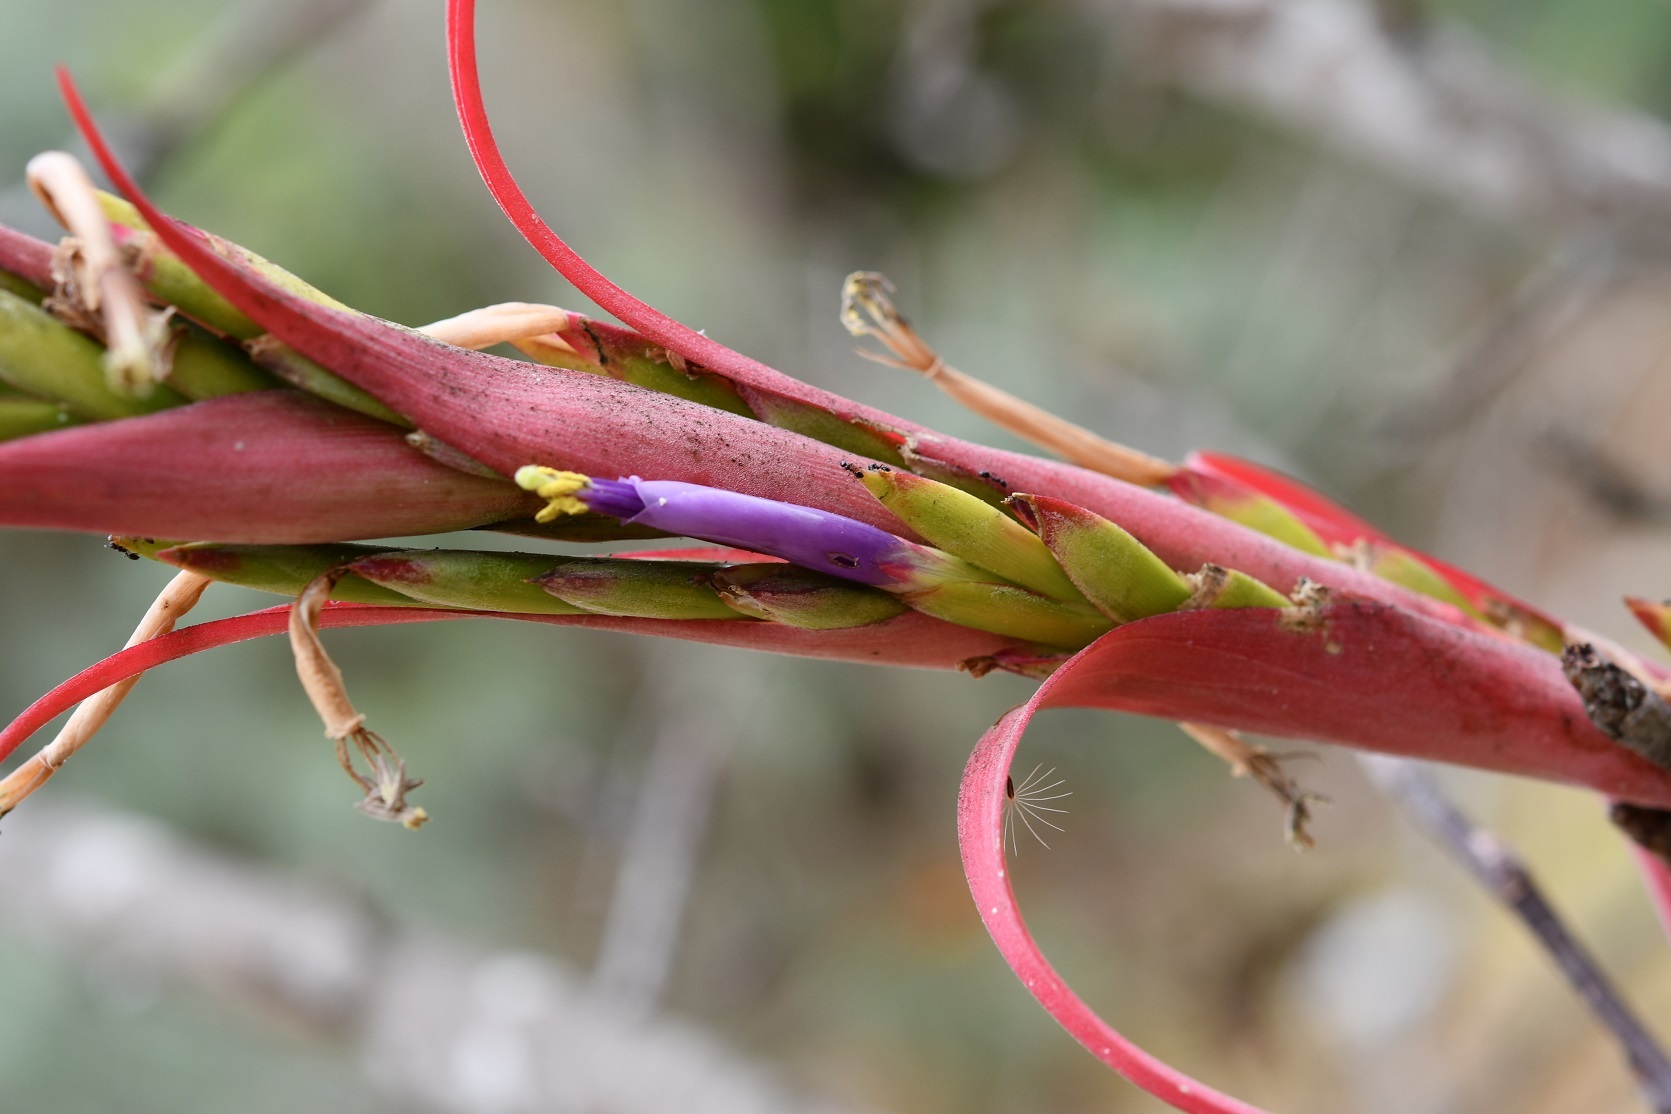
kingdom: Plantae
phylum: Tracheophyta
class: Liliopsida
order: Poales
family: Bromeliaceae
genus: Tillandsia
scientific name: Tillandsia belloensis
